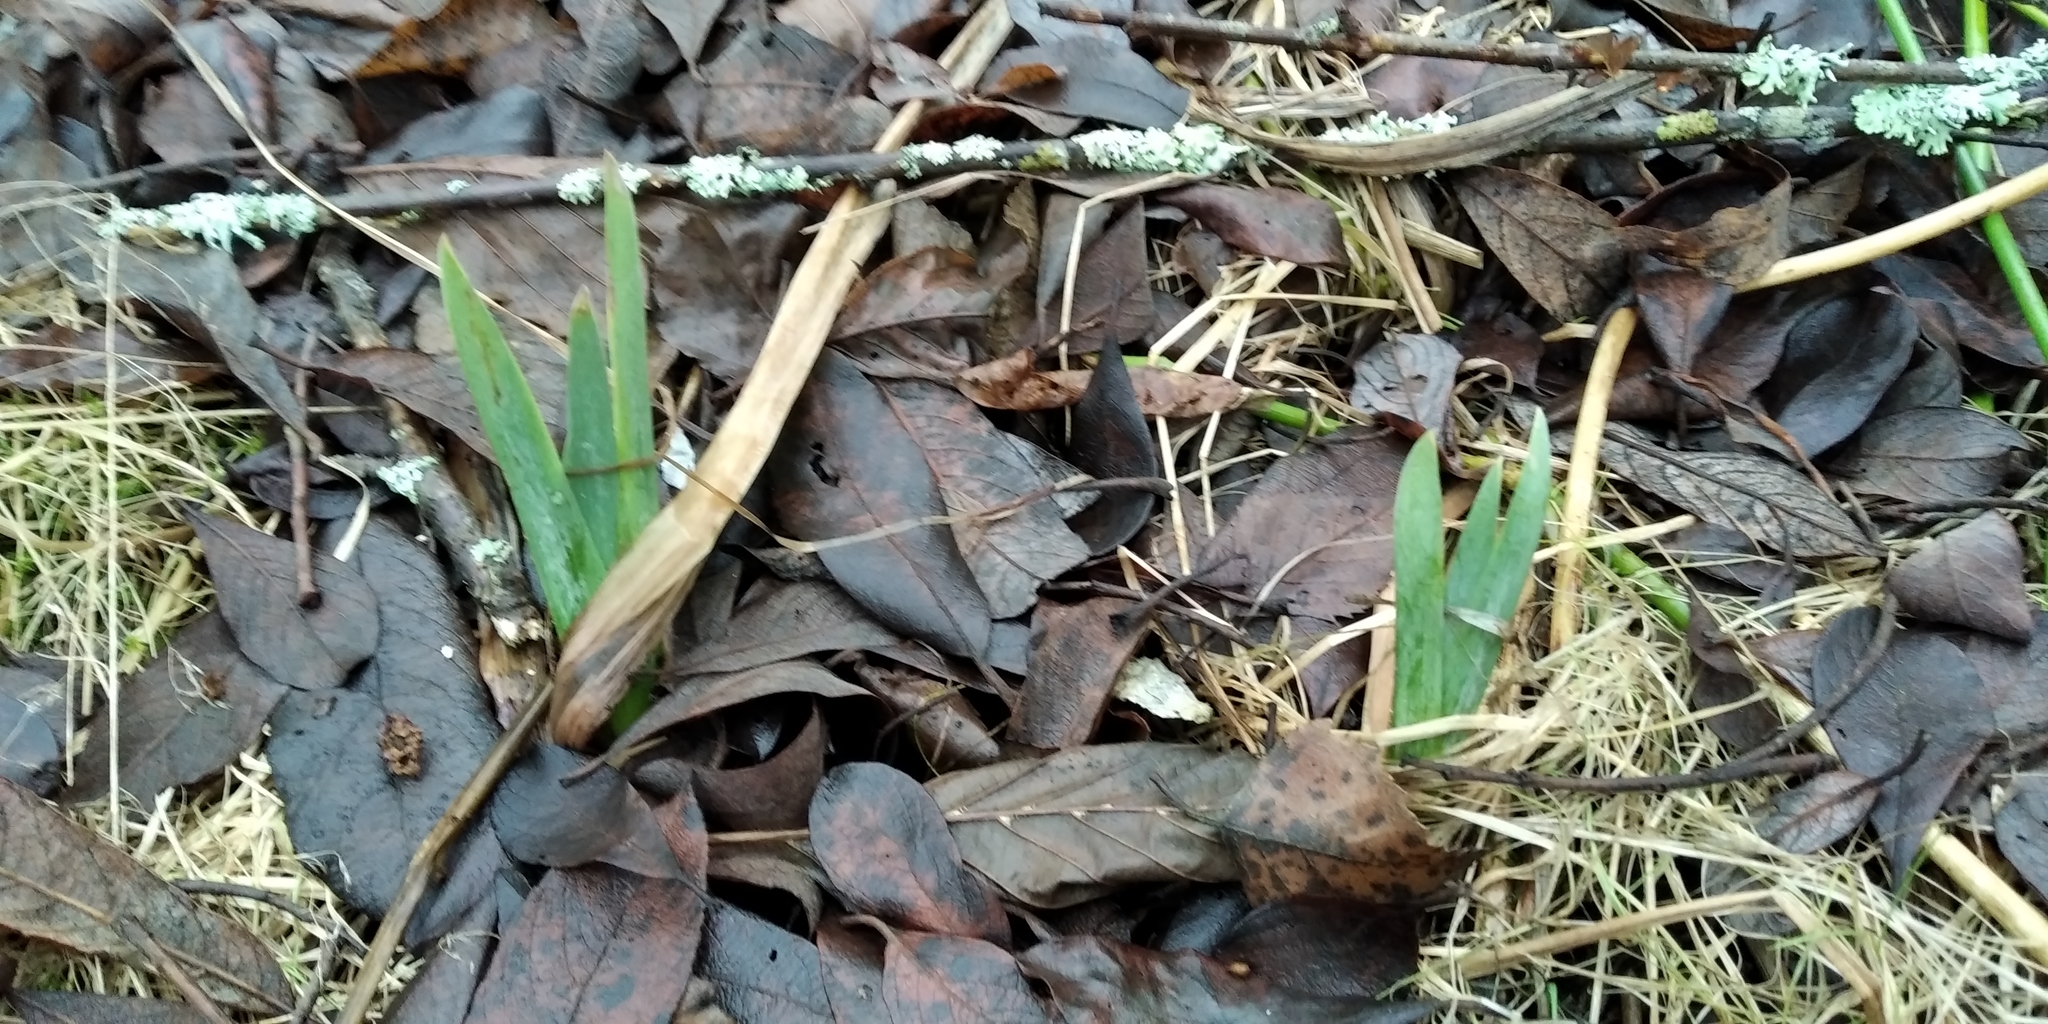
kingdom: Plantae
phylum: Tracheophyta
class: Liliopsida
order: Asparagales
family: Iridaceae
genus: Iris
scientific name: Iris pseudacorus
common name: Yellow flag
